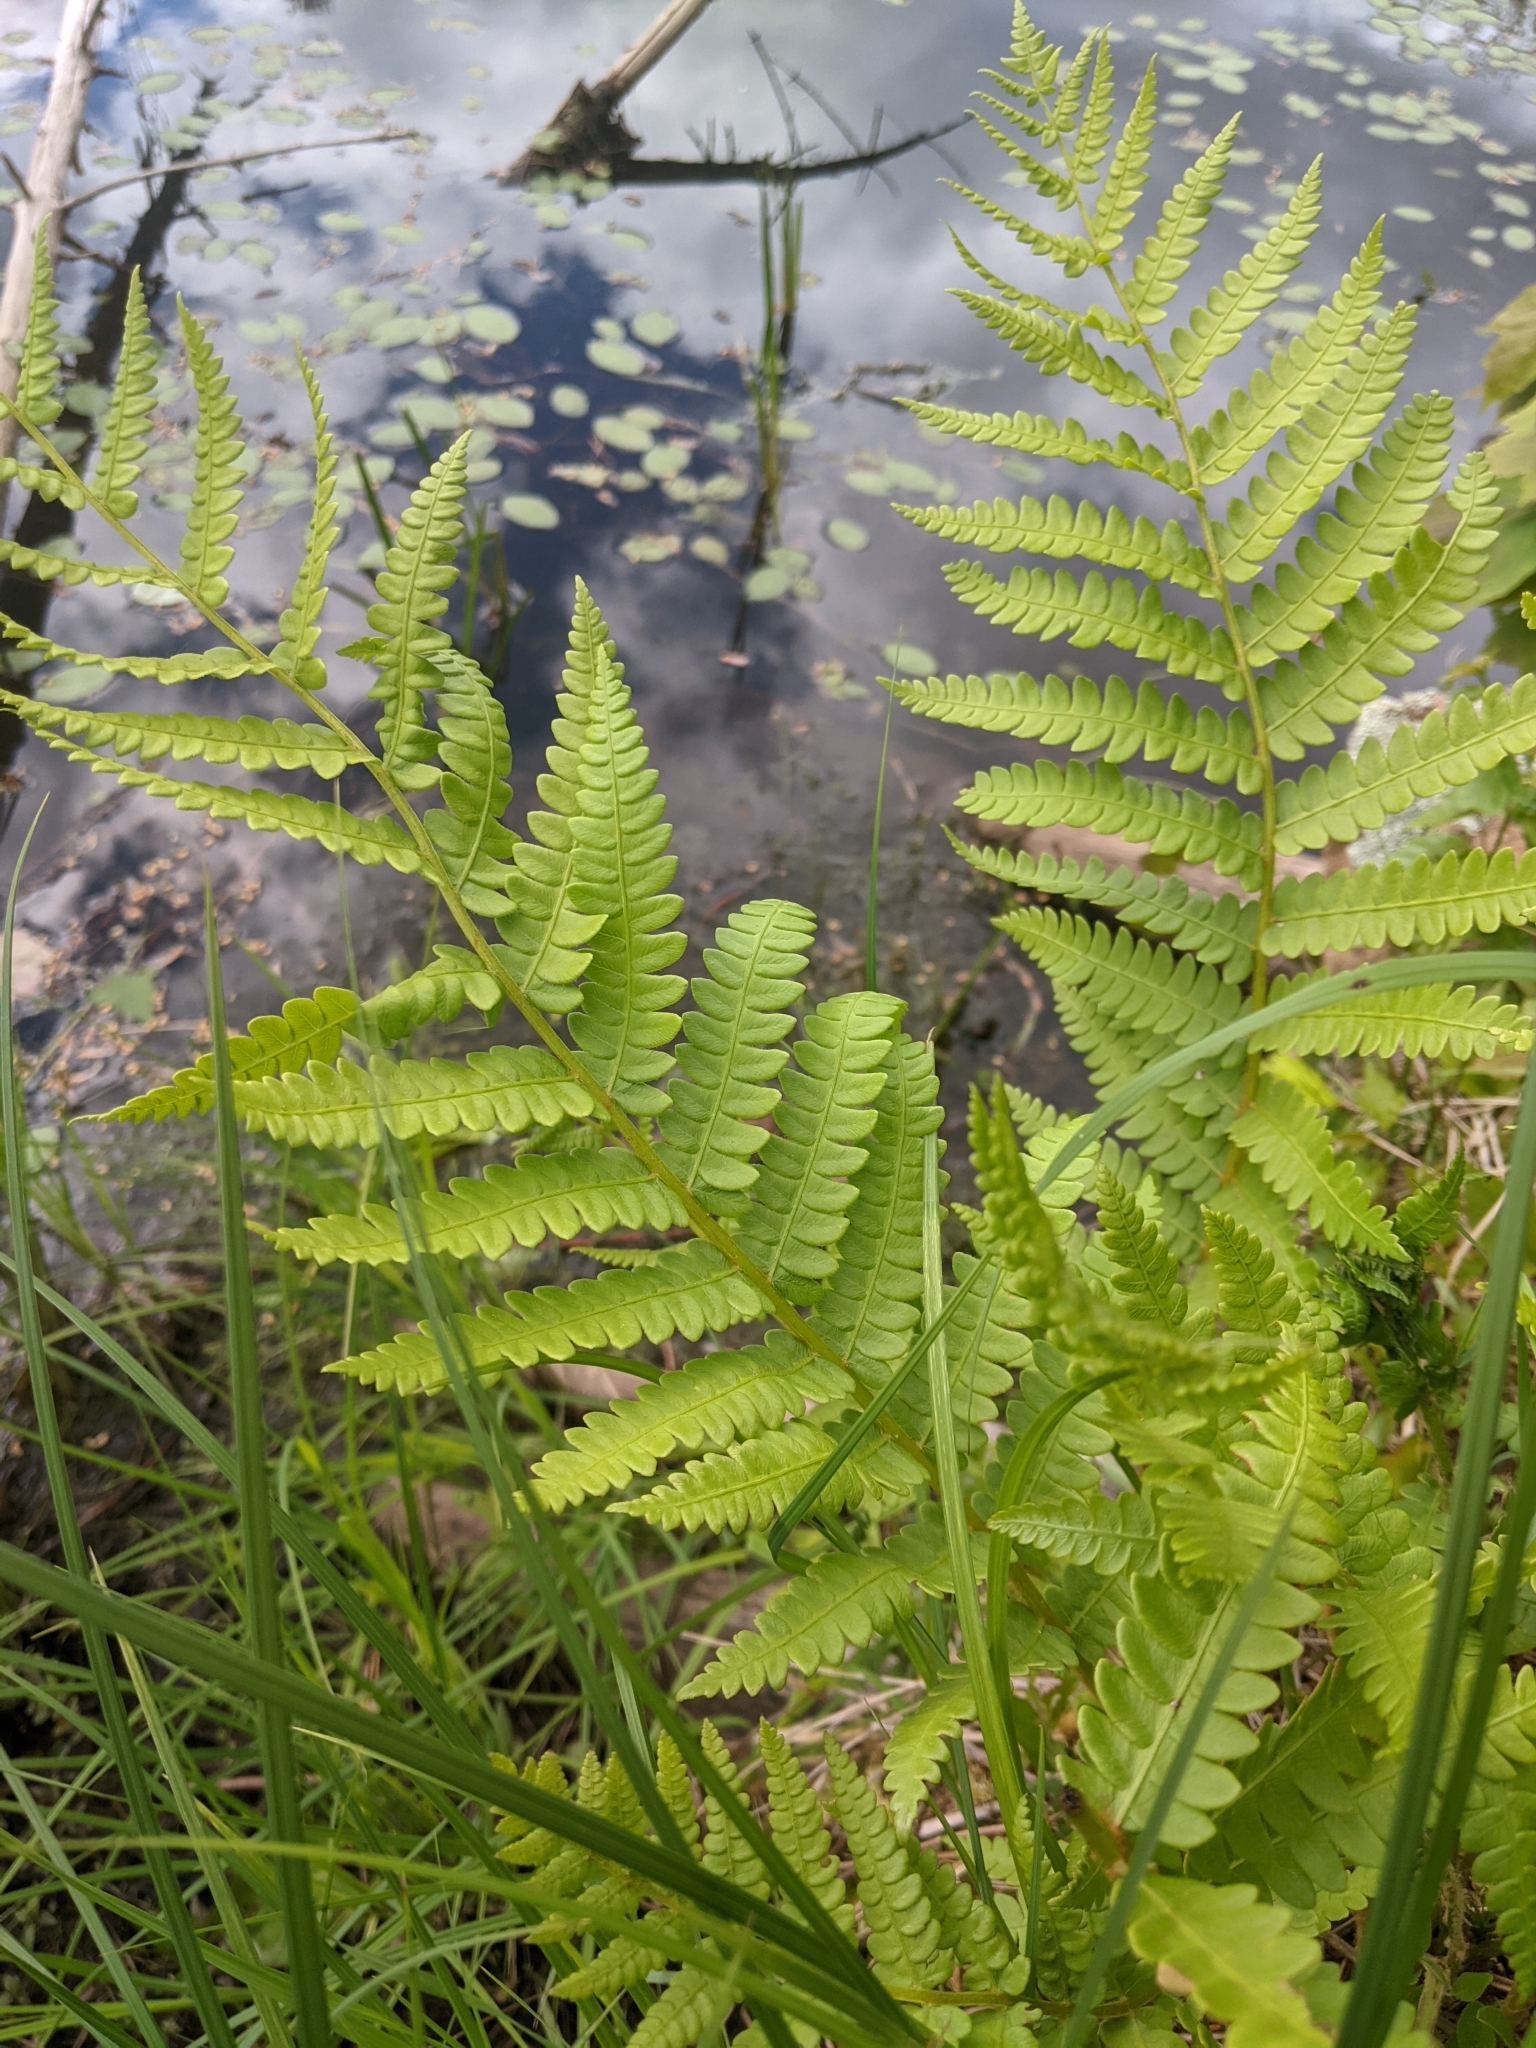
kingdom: Plantae
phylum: Tracheophyta
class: Polypodiopsida
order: Osmundales
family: Osmundaceae
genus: Osmundastrum
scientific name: Osmundastrum cinnamomeum
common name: Cinnamon fern
